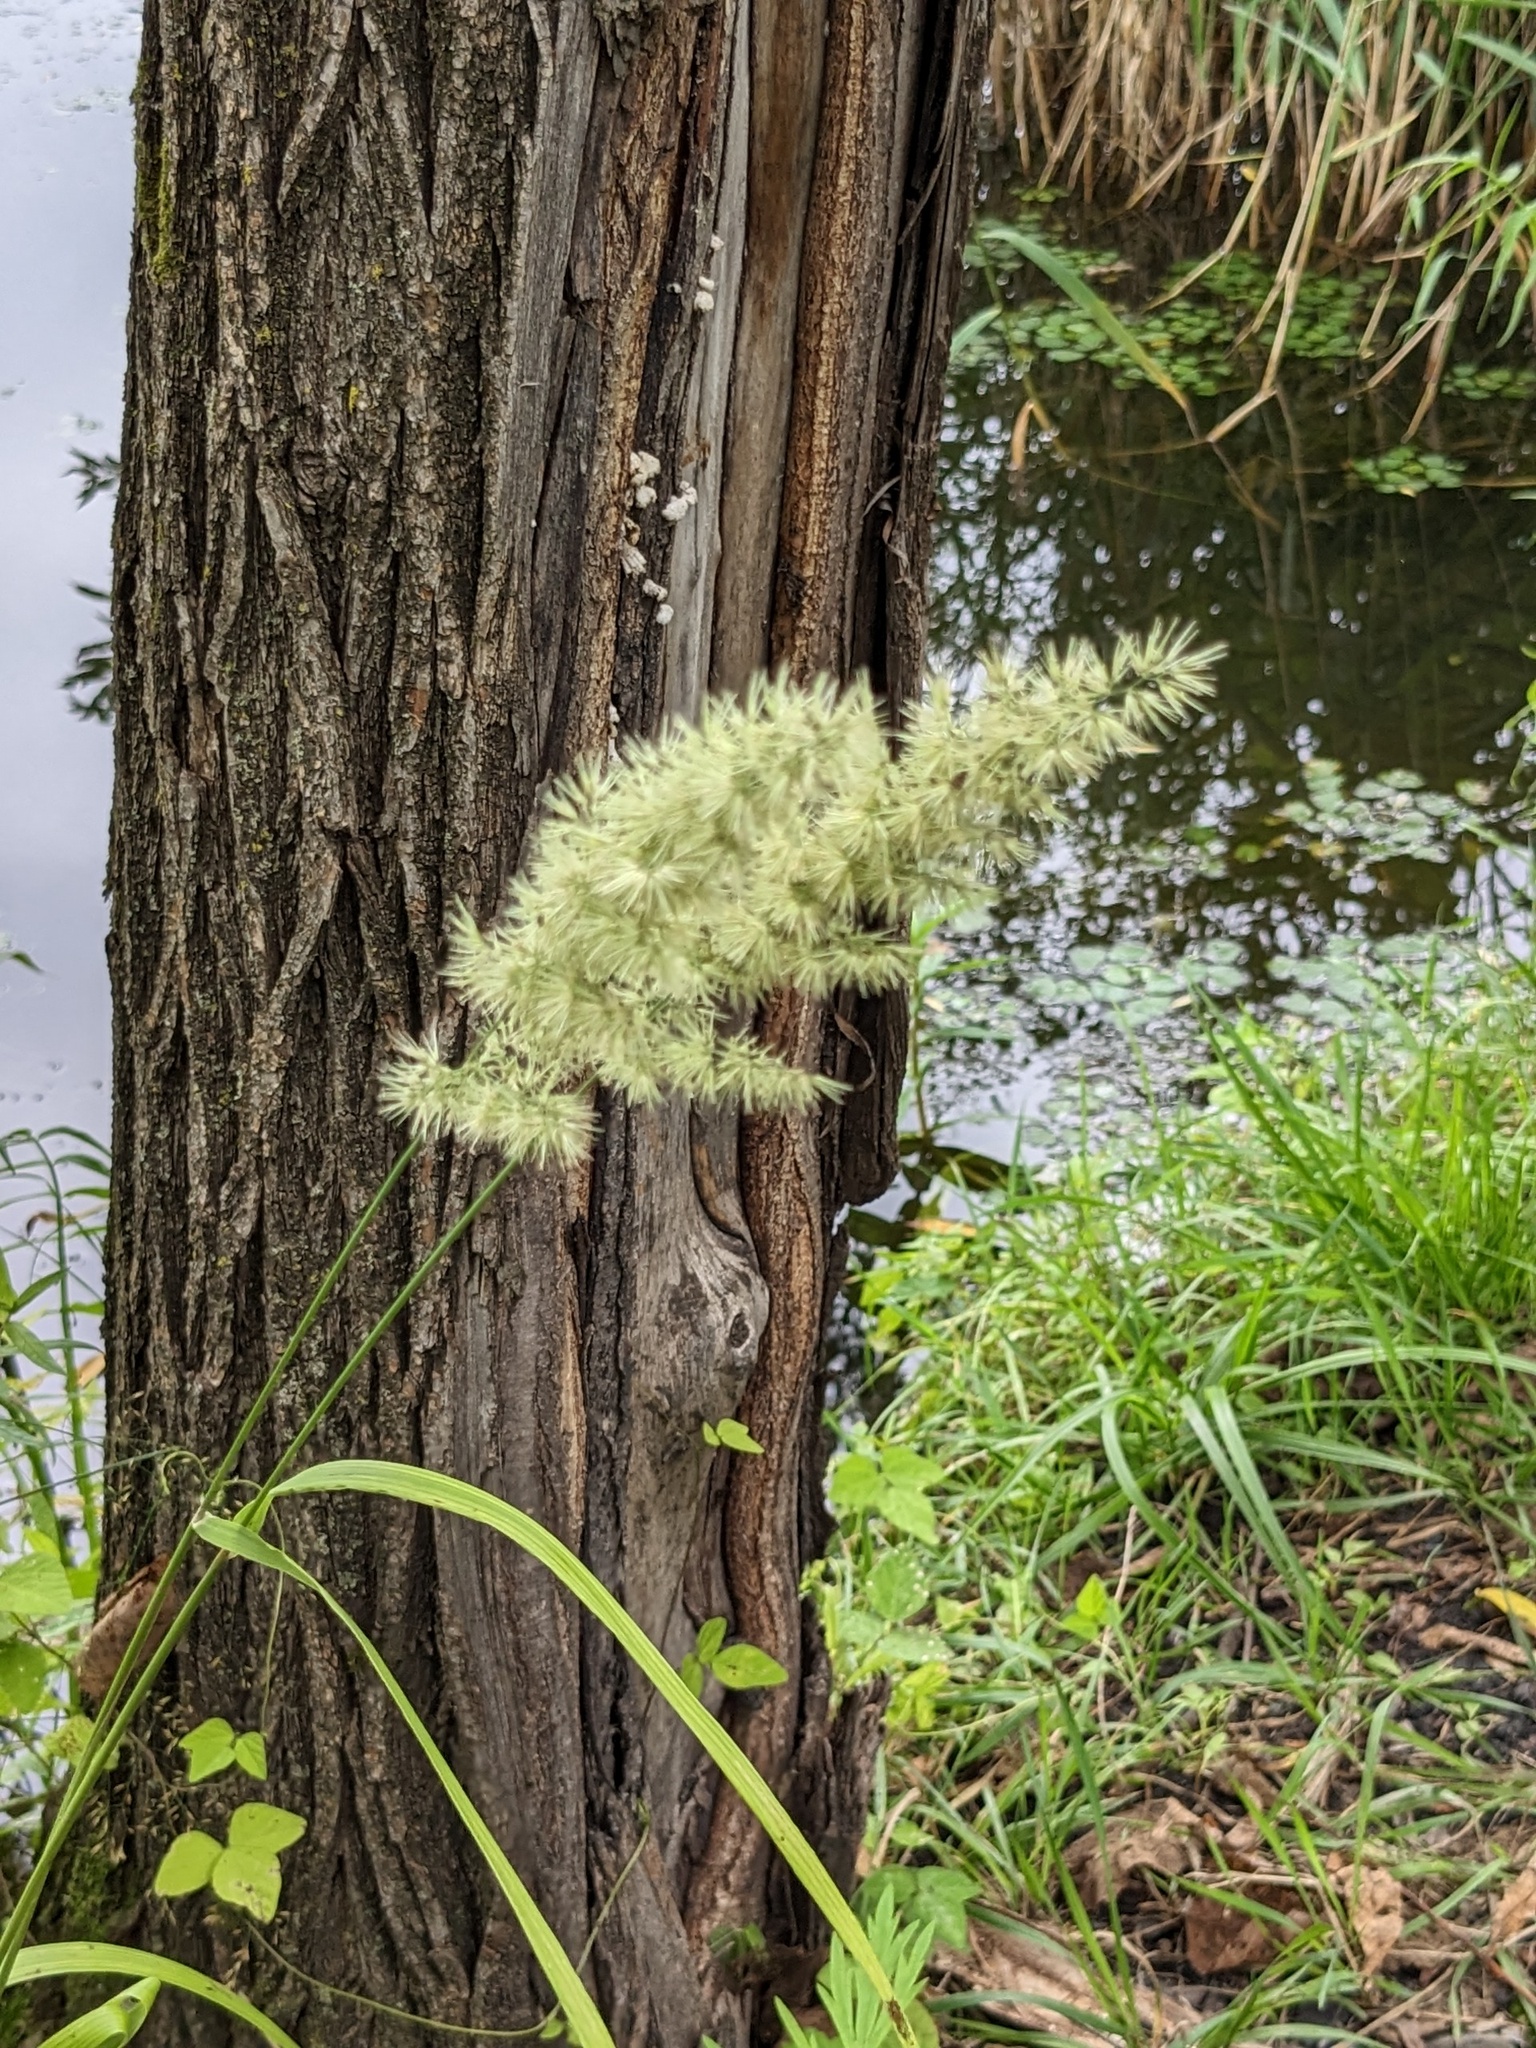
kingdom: Plantae
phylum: Tracheophyta
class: Liliopsida
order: Poales
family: Poaceae
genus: Calamagrostis
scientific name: Calamagrostis extremiorientalis
